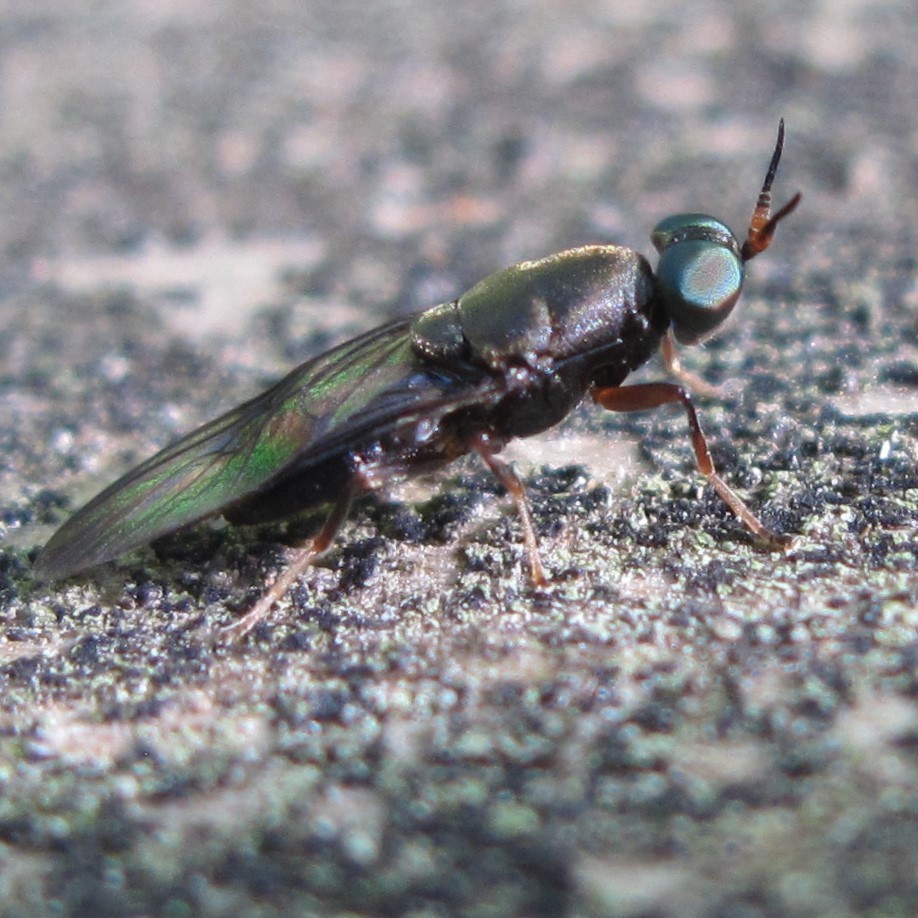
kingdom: Animalia
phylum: Arthropoda
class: Insecta
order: Diptera
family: Stratiomyidae
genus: Dysbiota
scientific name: Dysbiota peregrina
